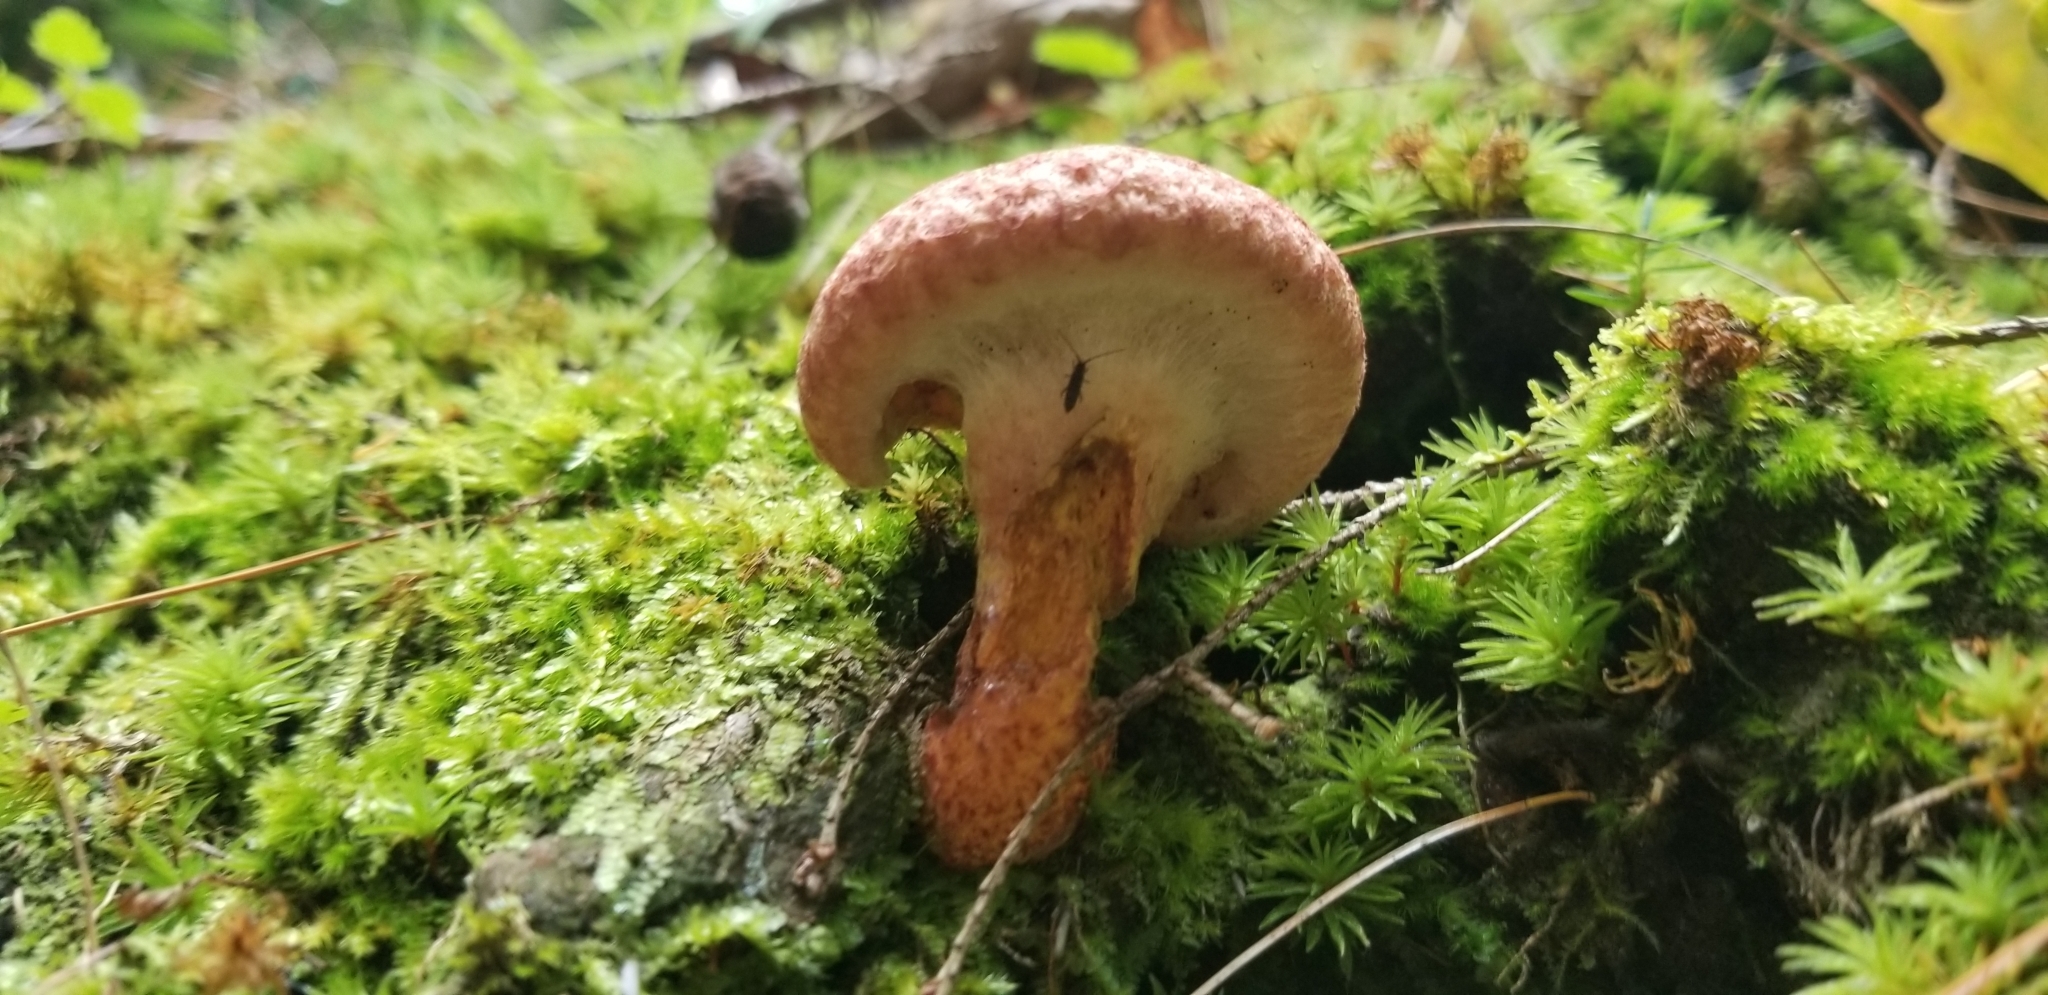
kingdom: Fungi
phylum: Basidiomycota
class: Agaricomycetes
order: Boletales
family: Suillaceae
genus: Suillus
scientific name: Suillus spraguei
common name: Painted suillus
